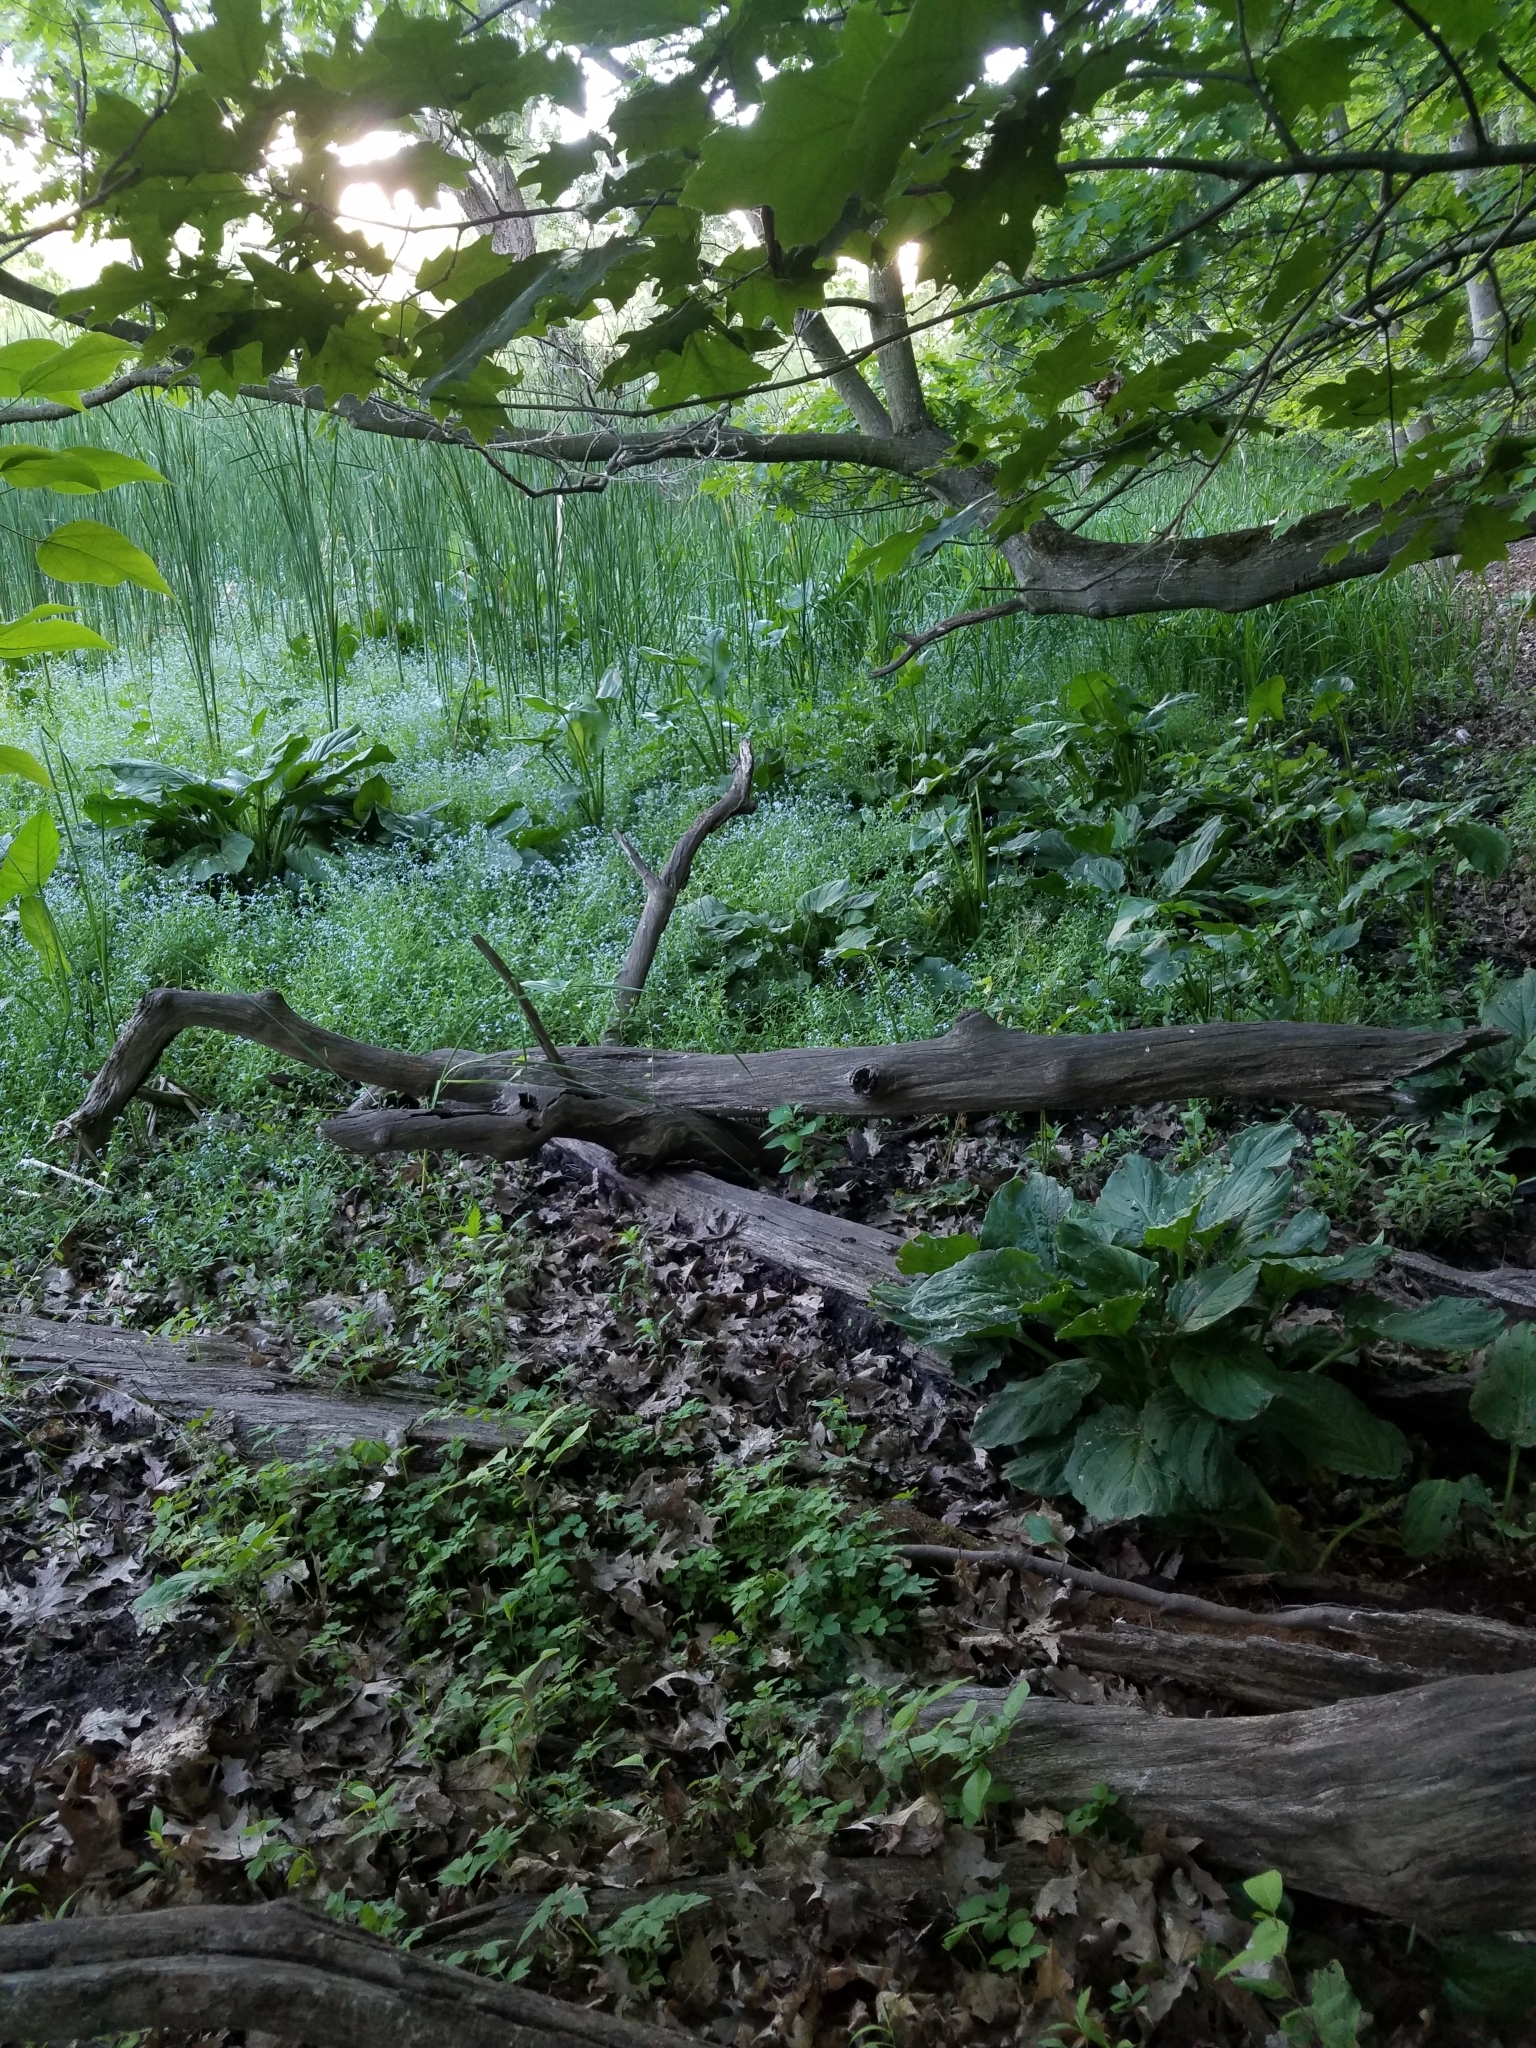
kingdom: Plantae
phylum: Tracheophyta
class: Liliopsida
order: Alismatales
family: Araceae
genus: Symplocarpus
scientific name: Symplocarpus foetidus
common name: Eastern skunk cabbage
